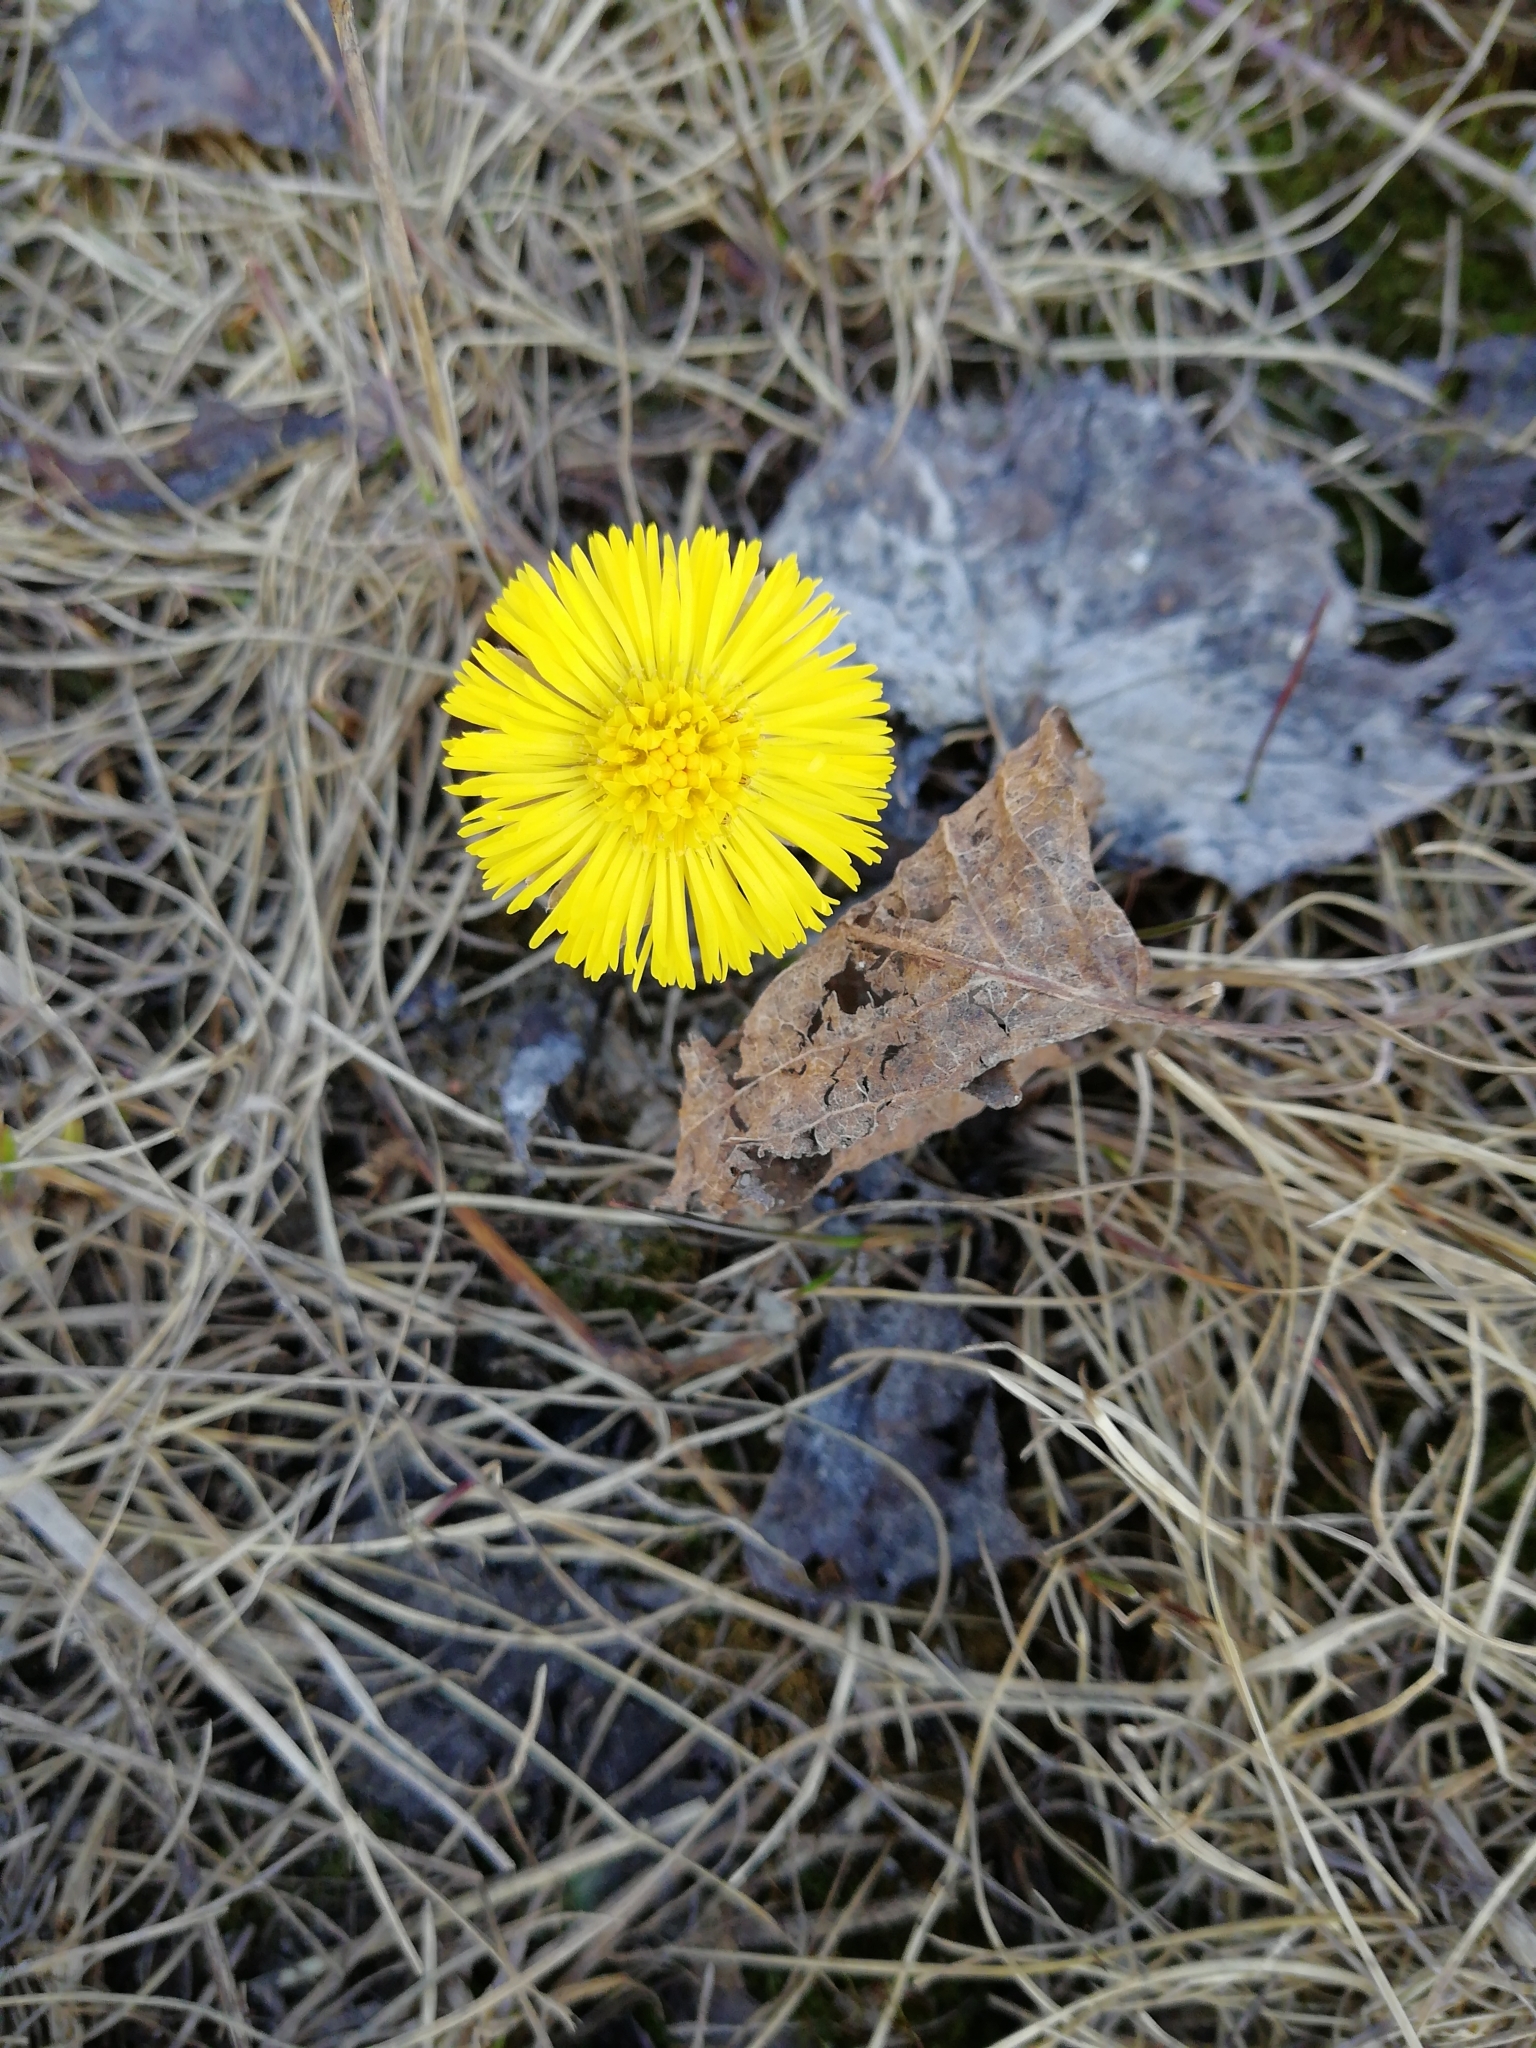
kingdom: Plantae
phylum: Tracheophyta
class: Magnoliopsida
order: Asterales
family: Asteraceae
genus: Tussilago
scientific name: Tussilago farfara
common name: Coltsfoot
